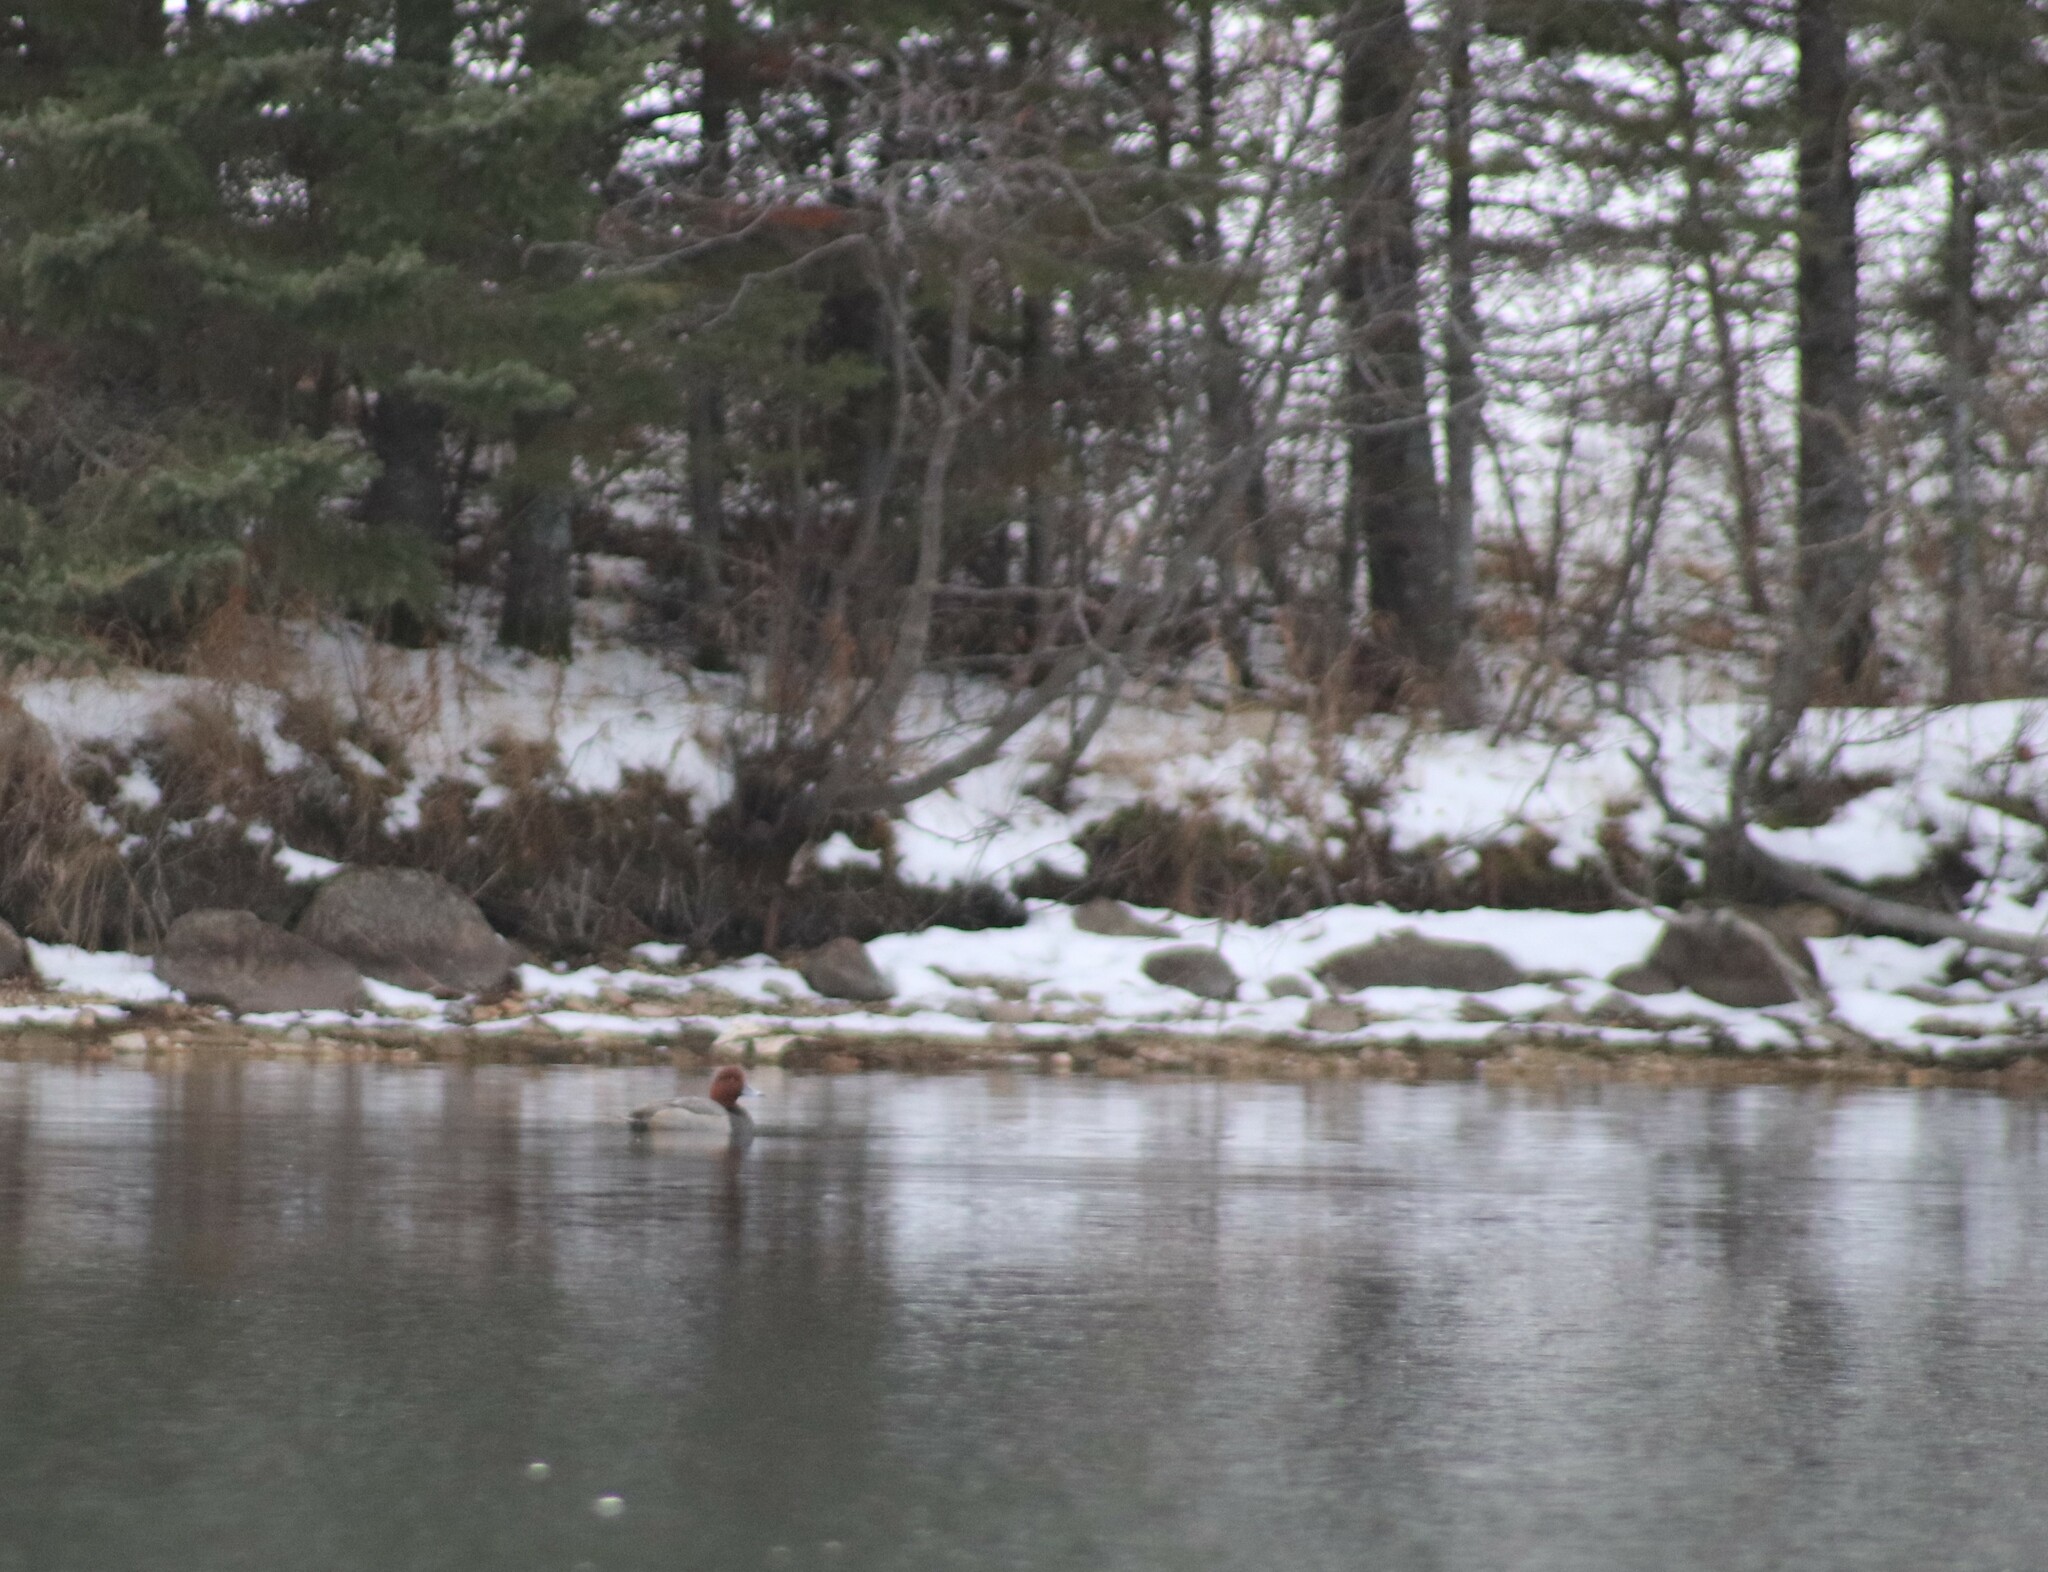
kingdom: Animalia
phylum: Chordata
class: Aves
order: Anseriformes
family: Anatidae
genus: Aythya
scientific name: Aythya americana
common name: Redhead
